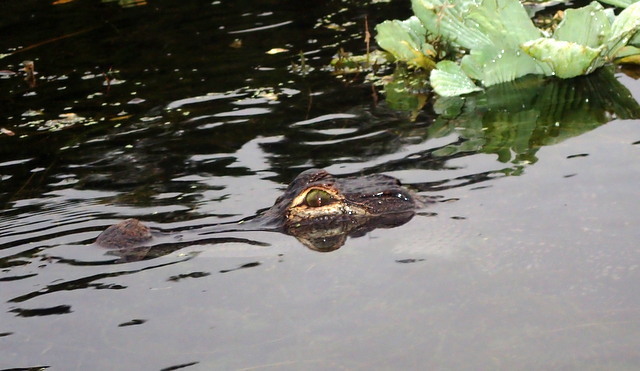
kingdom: Animalia
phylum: Chordata
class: Crocodylia
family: Alligatoridae
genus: Alligator
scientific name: Alligator mississippiensis
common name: American alligator
